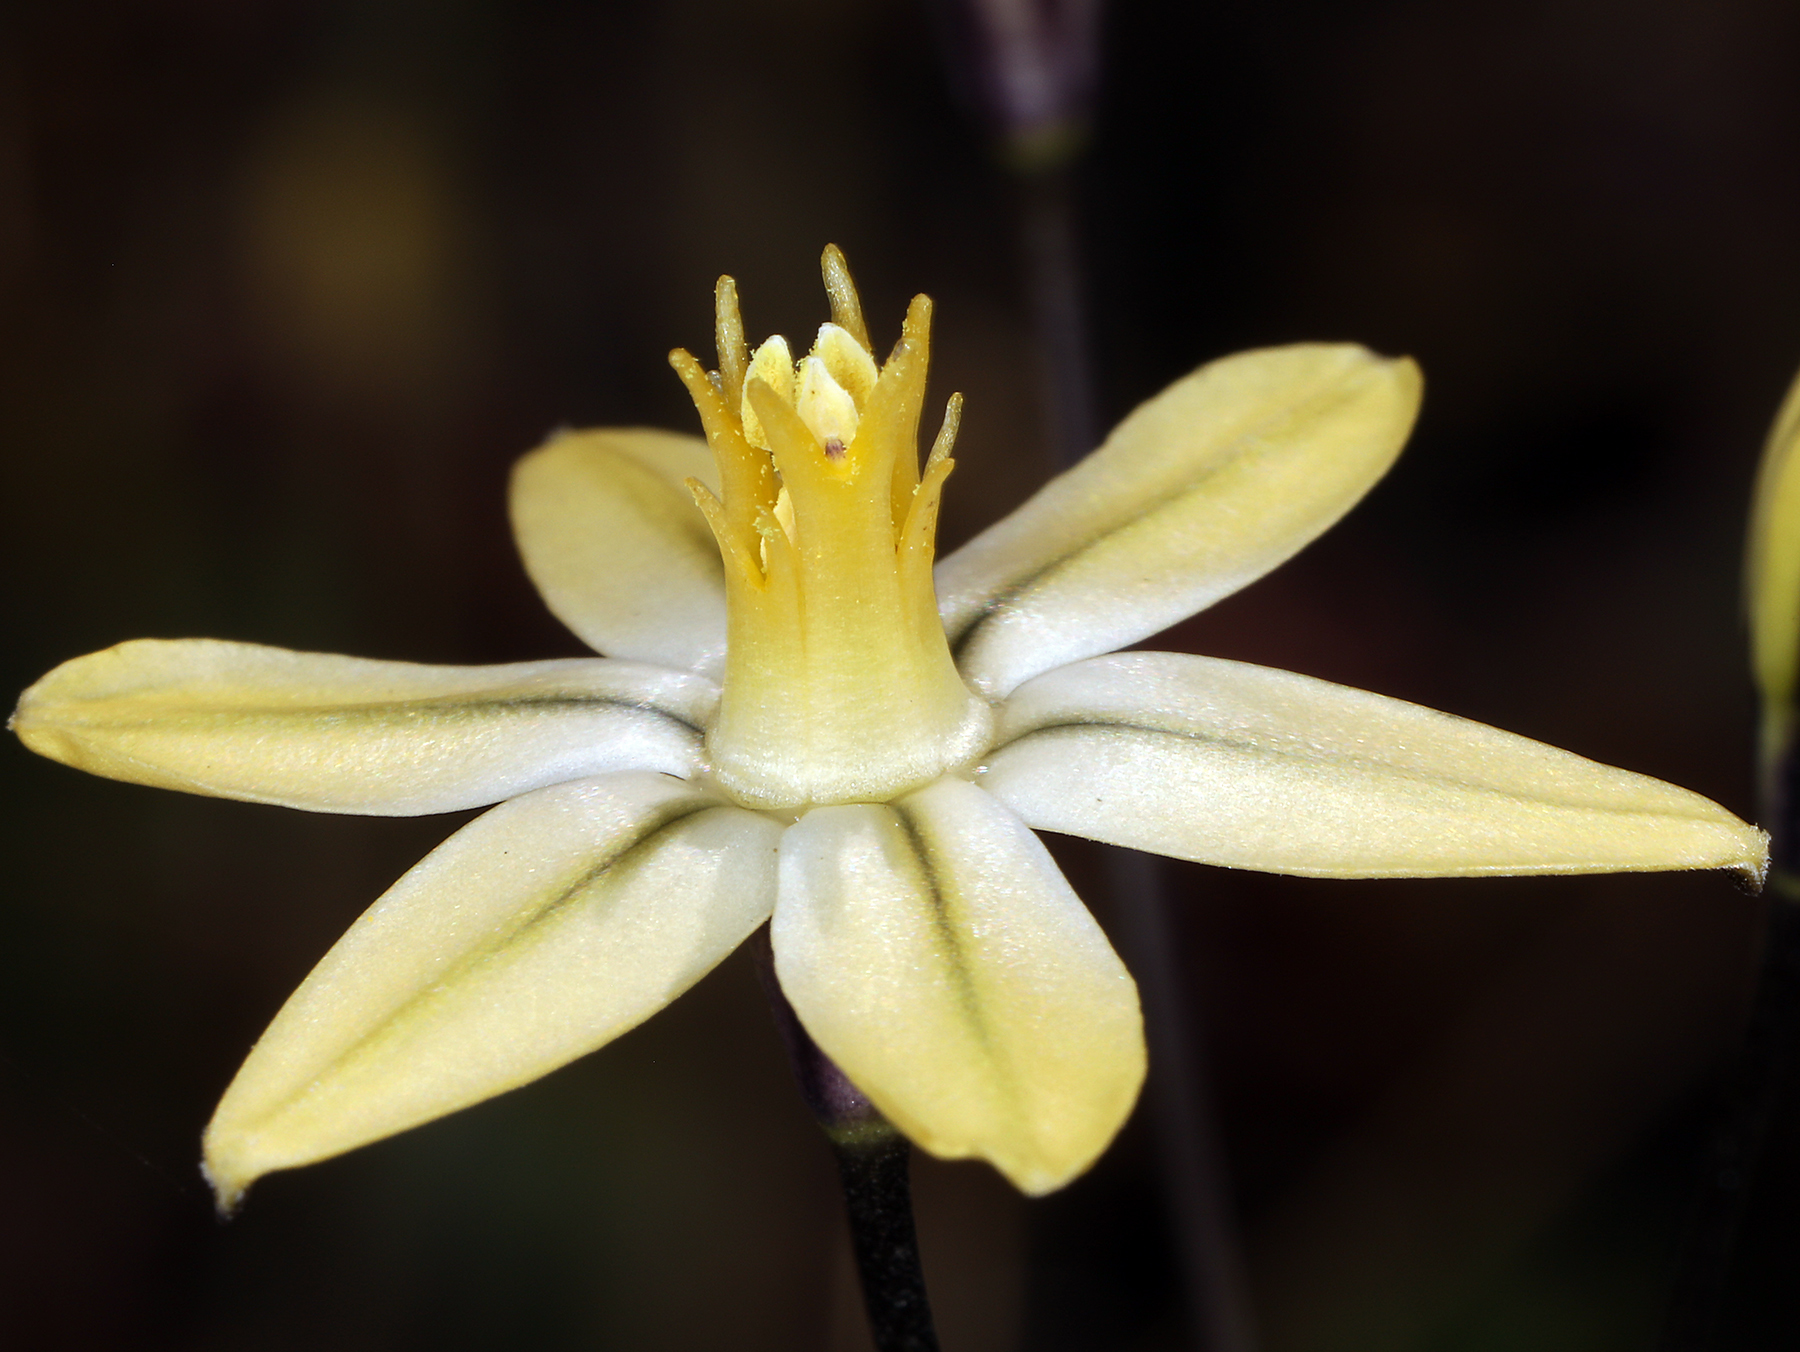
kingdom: Plantae
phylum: Tracheophyta
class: Liliopsida
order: Asparagales
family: Asparagaceae
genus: Triteleia
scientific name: Triteleia ixioides
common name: Yellow-brodiaea
